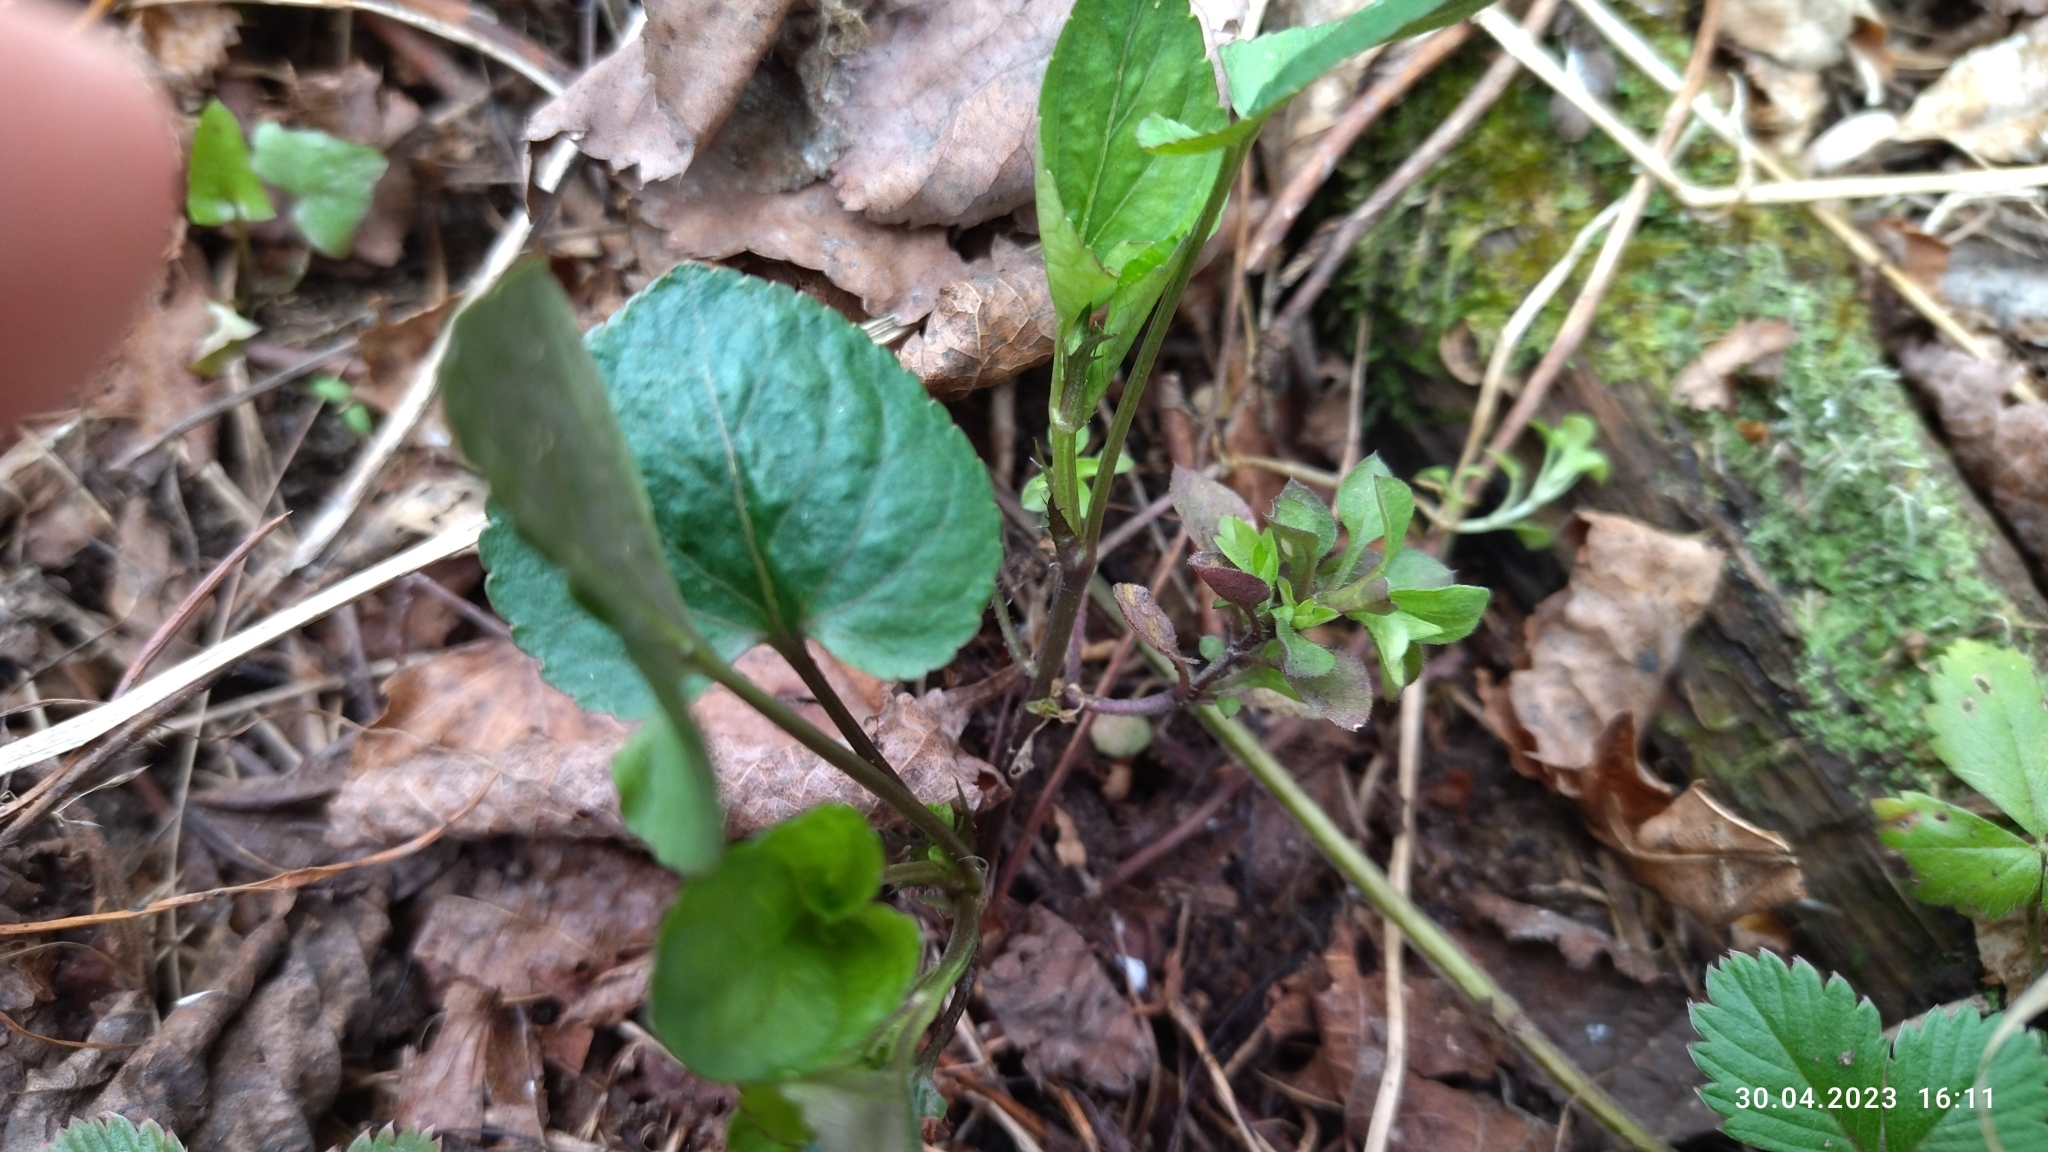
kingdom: Plantae
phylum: Tracheophyta
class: Magnoliopsida
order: Malpighiales
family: Violaceae
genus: Viola
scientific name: Viola riviniana
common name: Common dog-violet
